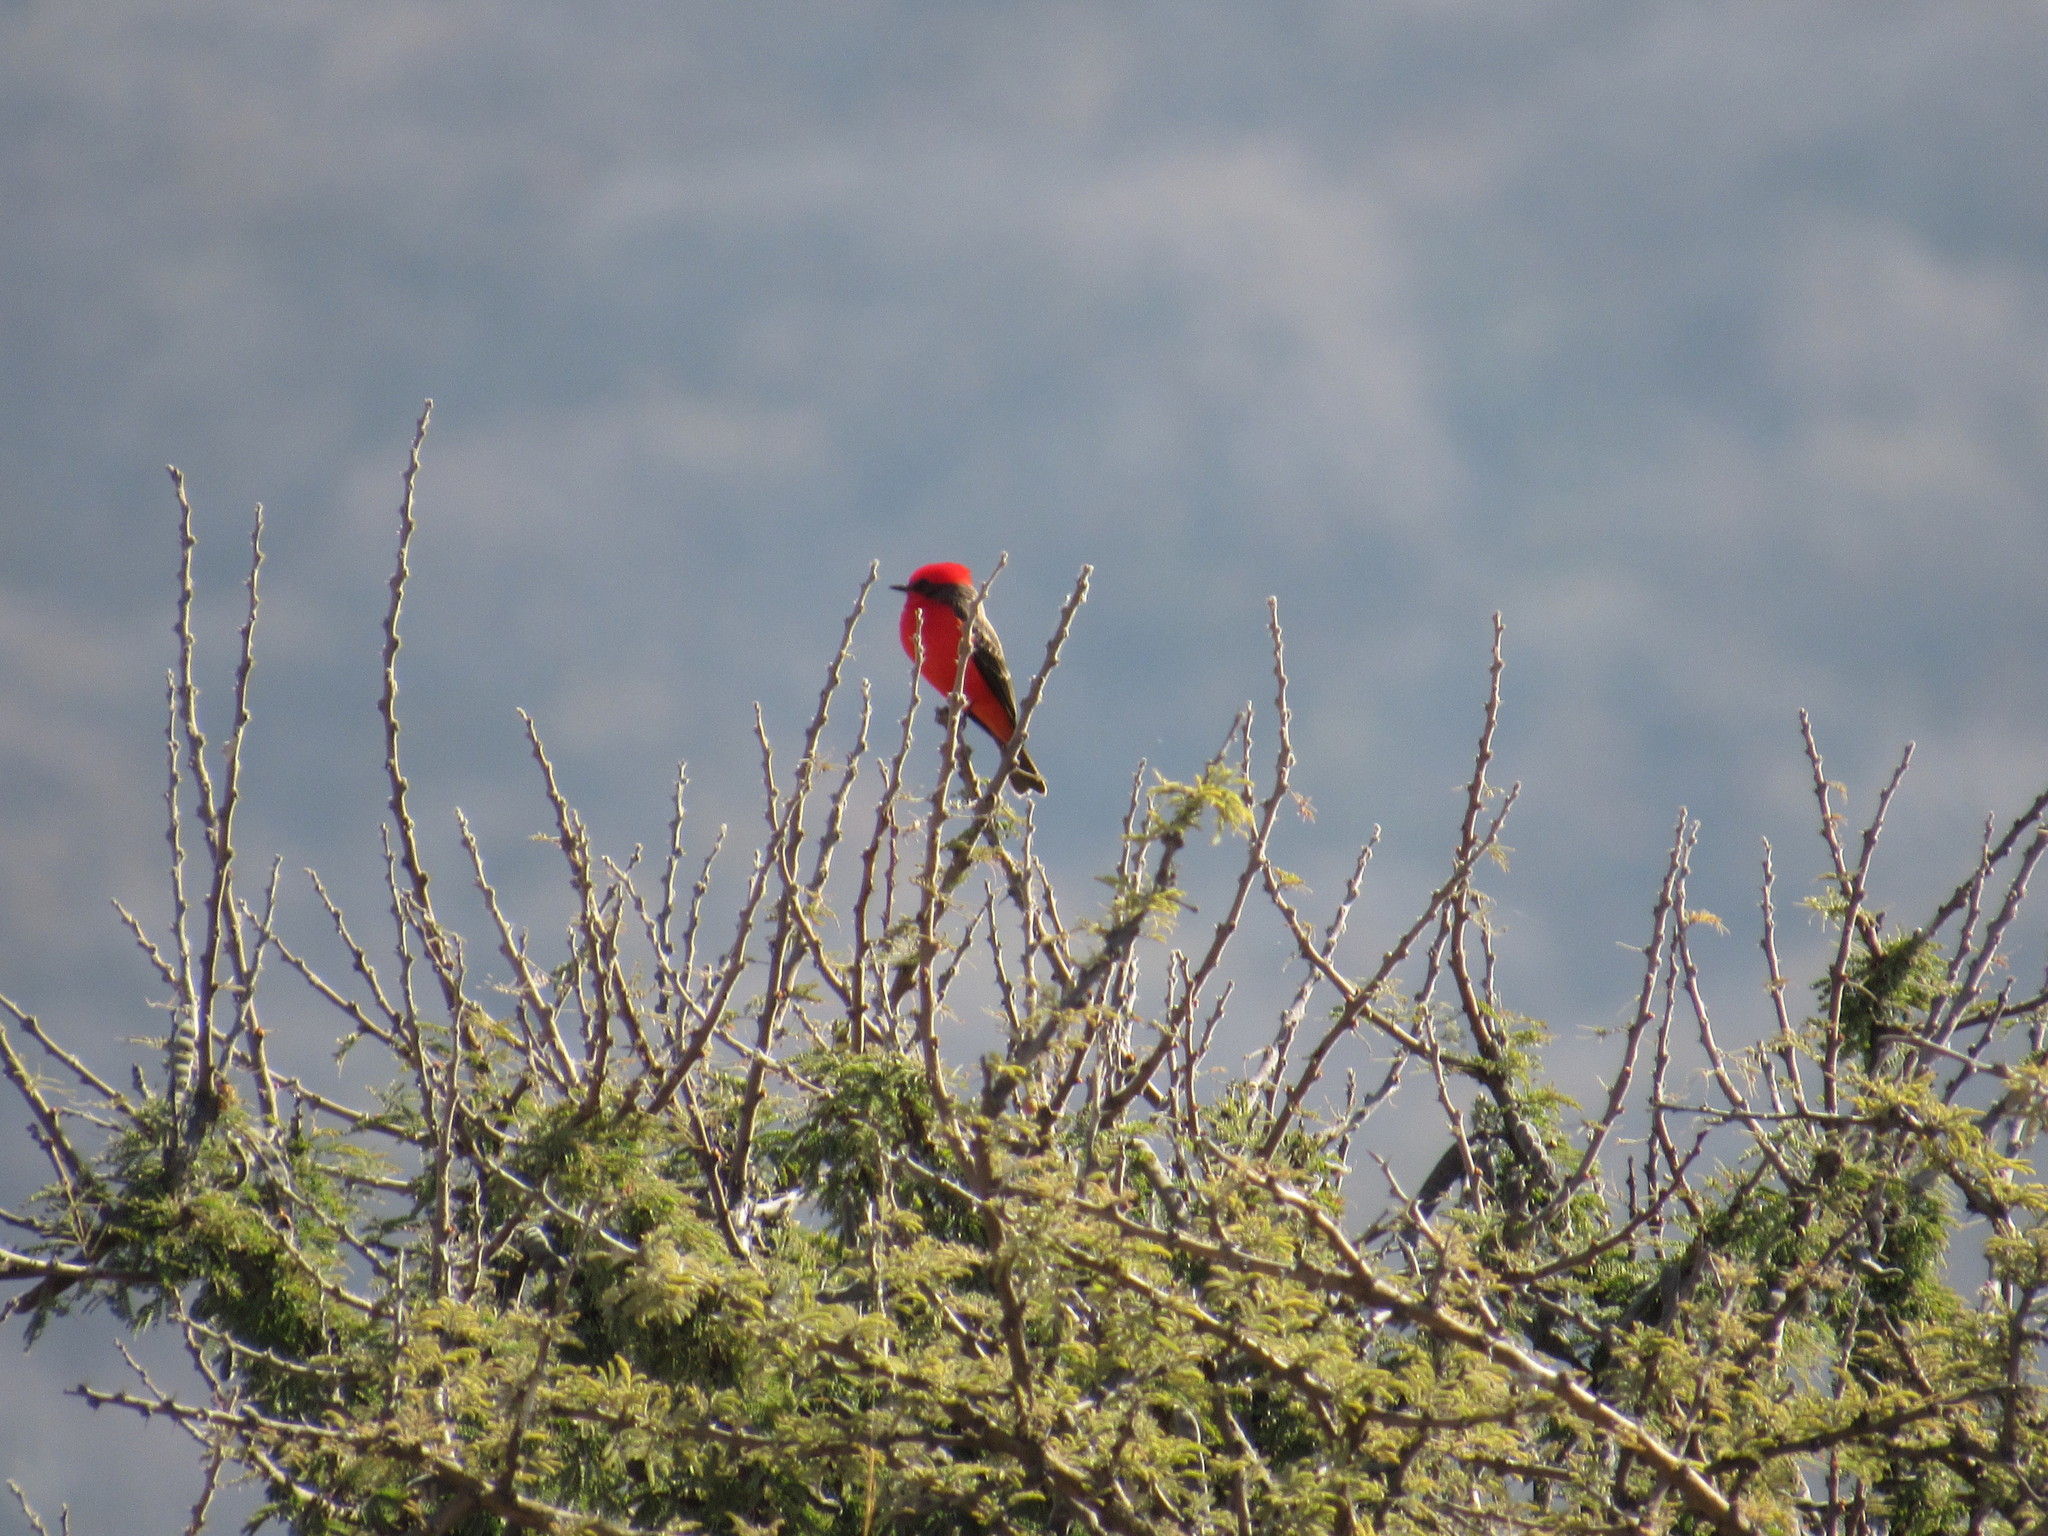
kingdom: Animalia
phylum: Chordata
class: Aves
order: Passeriformes
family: Tyrannidae
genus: Pyrocephalus
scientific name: Pyrocephalus rubinus
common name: Vermilion flycatcher
